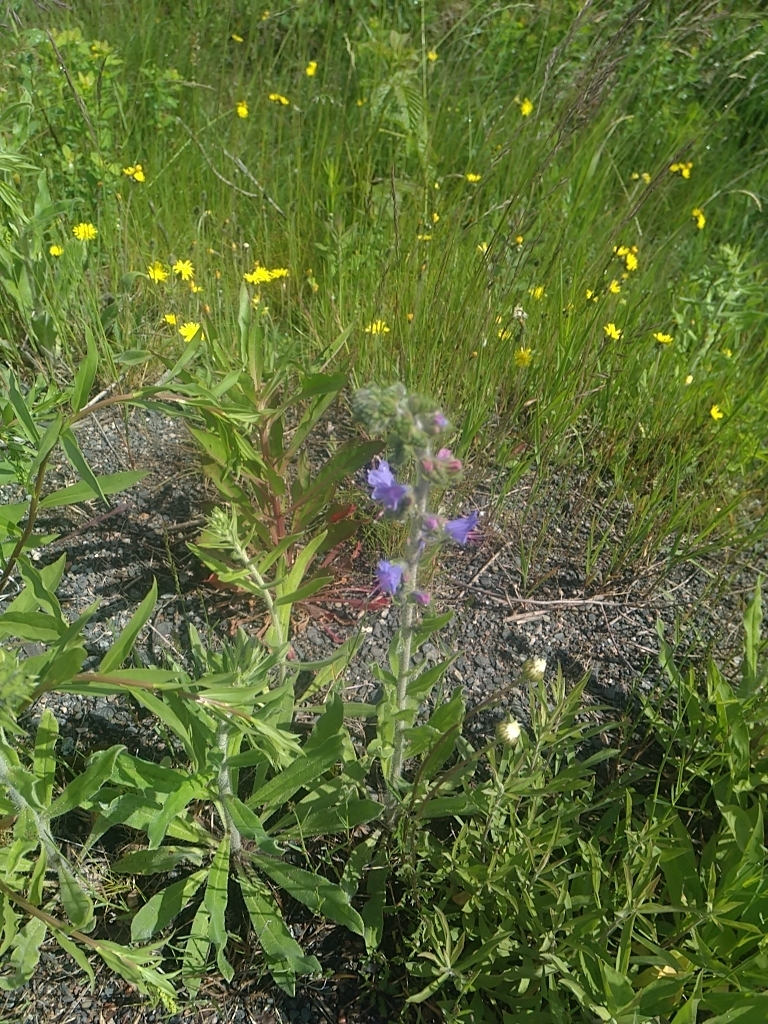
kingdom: Plantae
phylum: Tracheophyta
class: Magnoliopsida
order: Boraginales
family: Boraginaceae
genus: Echium
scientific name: Echium vulgare
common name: Common viper's bugloss
